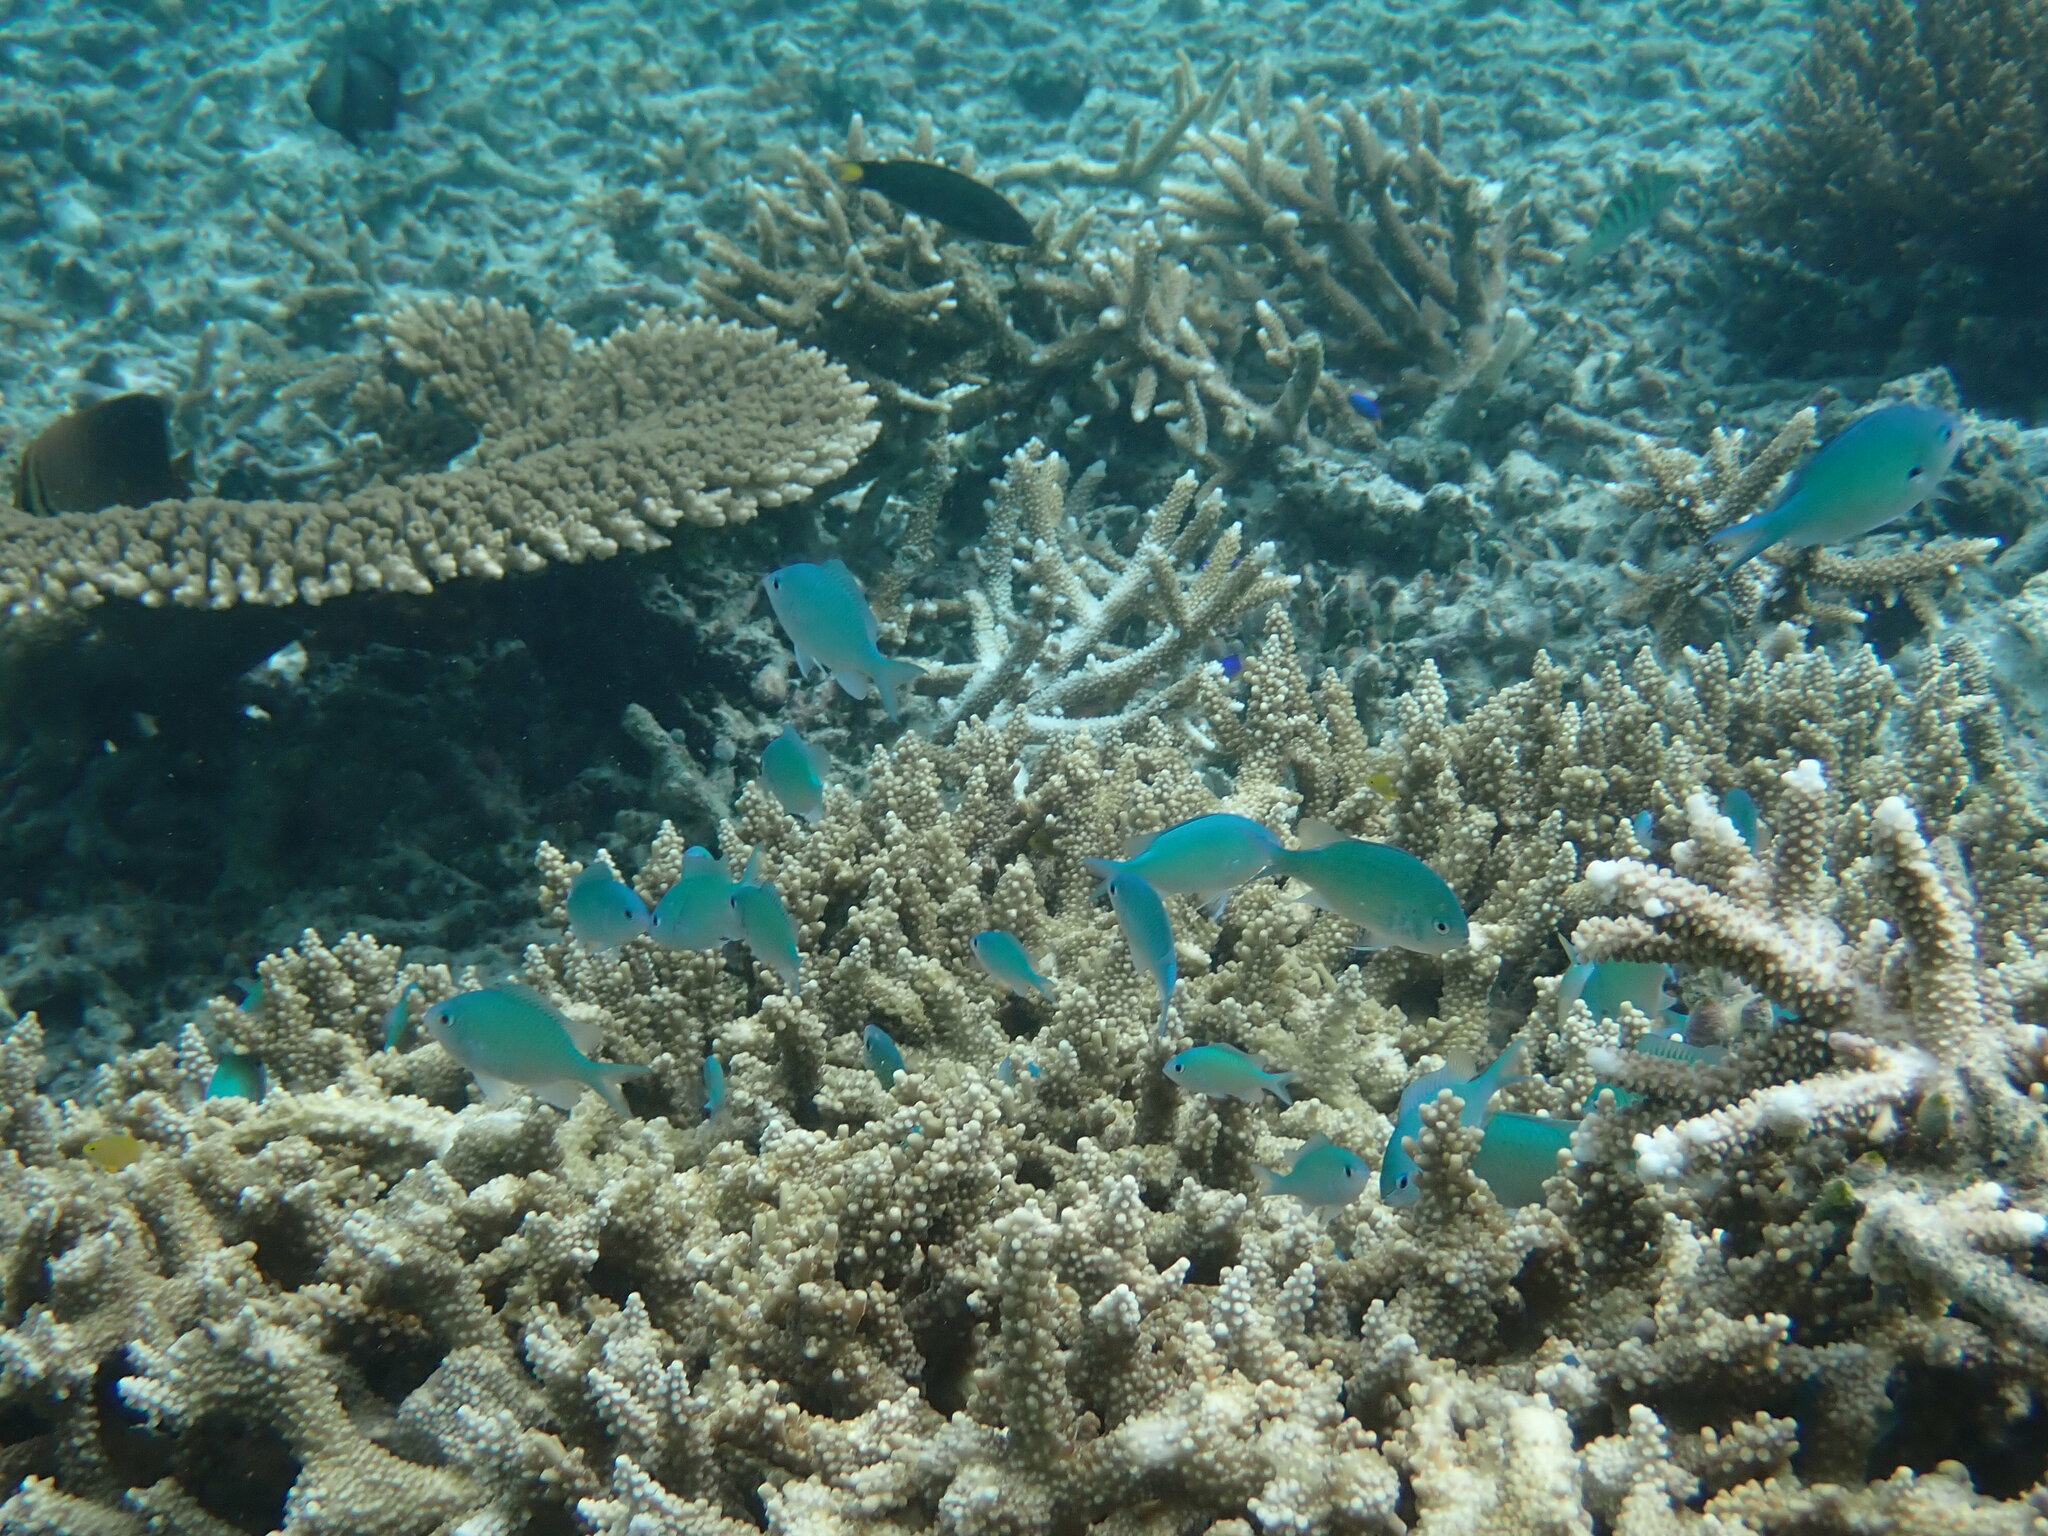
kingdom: Animalia
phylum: Chordata
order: Perciformes
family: Pomacentridae
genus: Chromis
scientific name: Chromis atripectoralis
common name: Black-axil chromis
